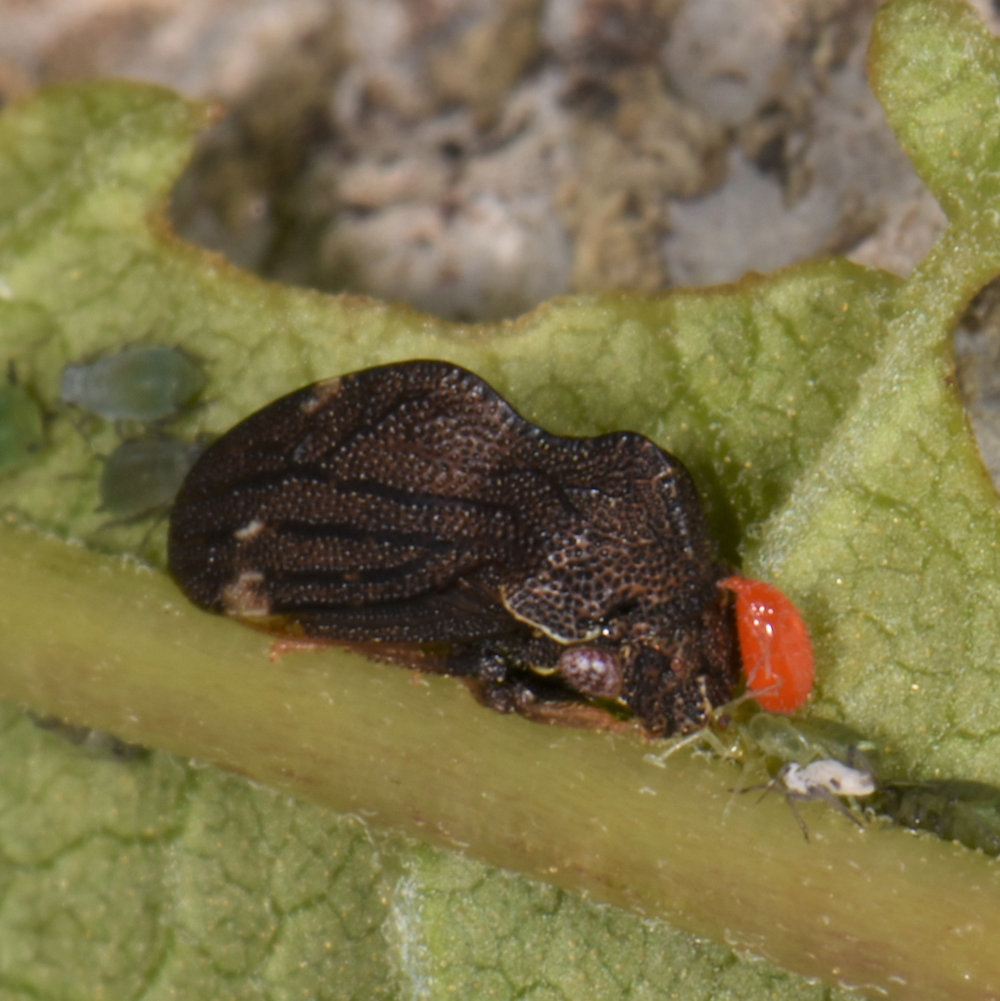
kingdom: Animalia
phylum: Arthropoda
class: Insecta
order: Hemiptera
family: Membracidae
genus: Publilia
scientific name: Publilia concava
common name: Aster treehopper
